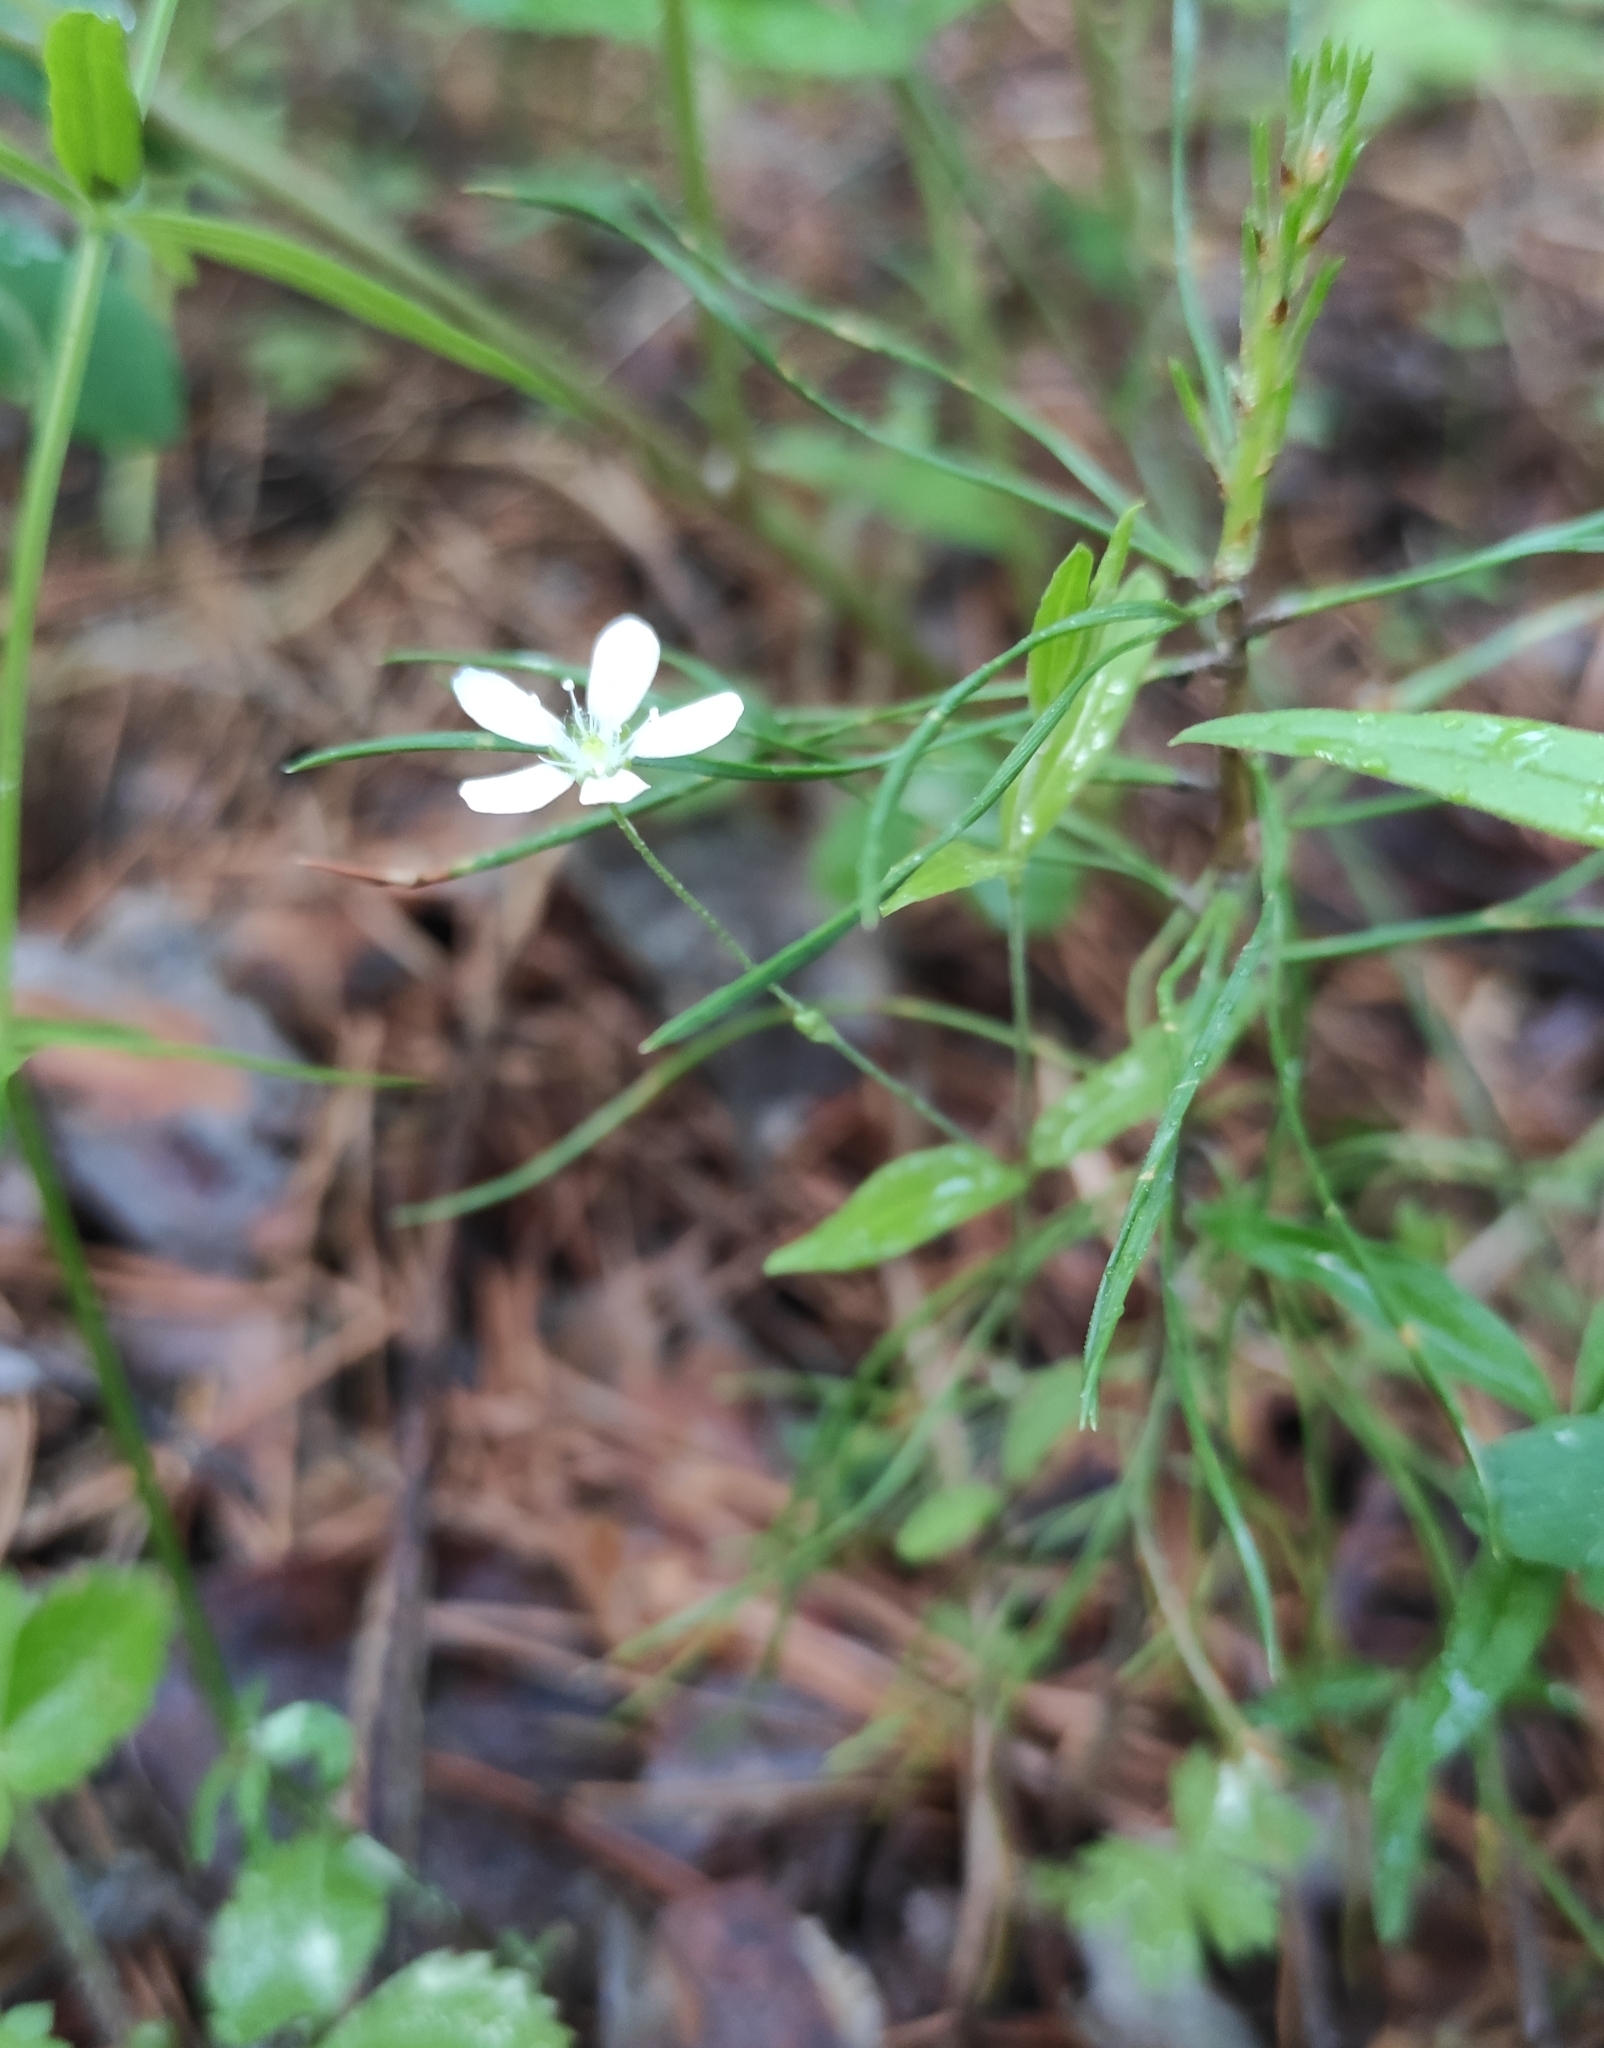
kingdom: Plantae
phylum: Tracheophyta
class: Magnoliopsida
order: Caryophyllales
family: Caryophyllaceae
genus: Moehringia
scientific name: Moehringia lateriflora
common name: Blunt-leaved sandwort
